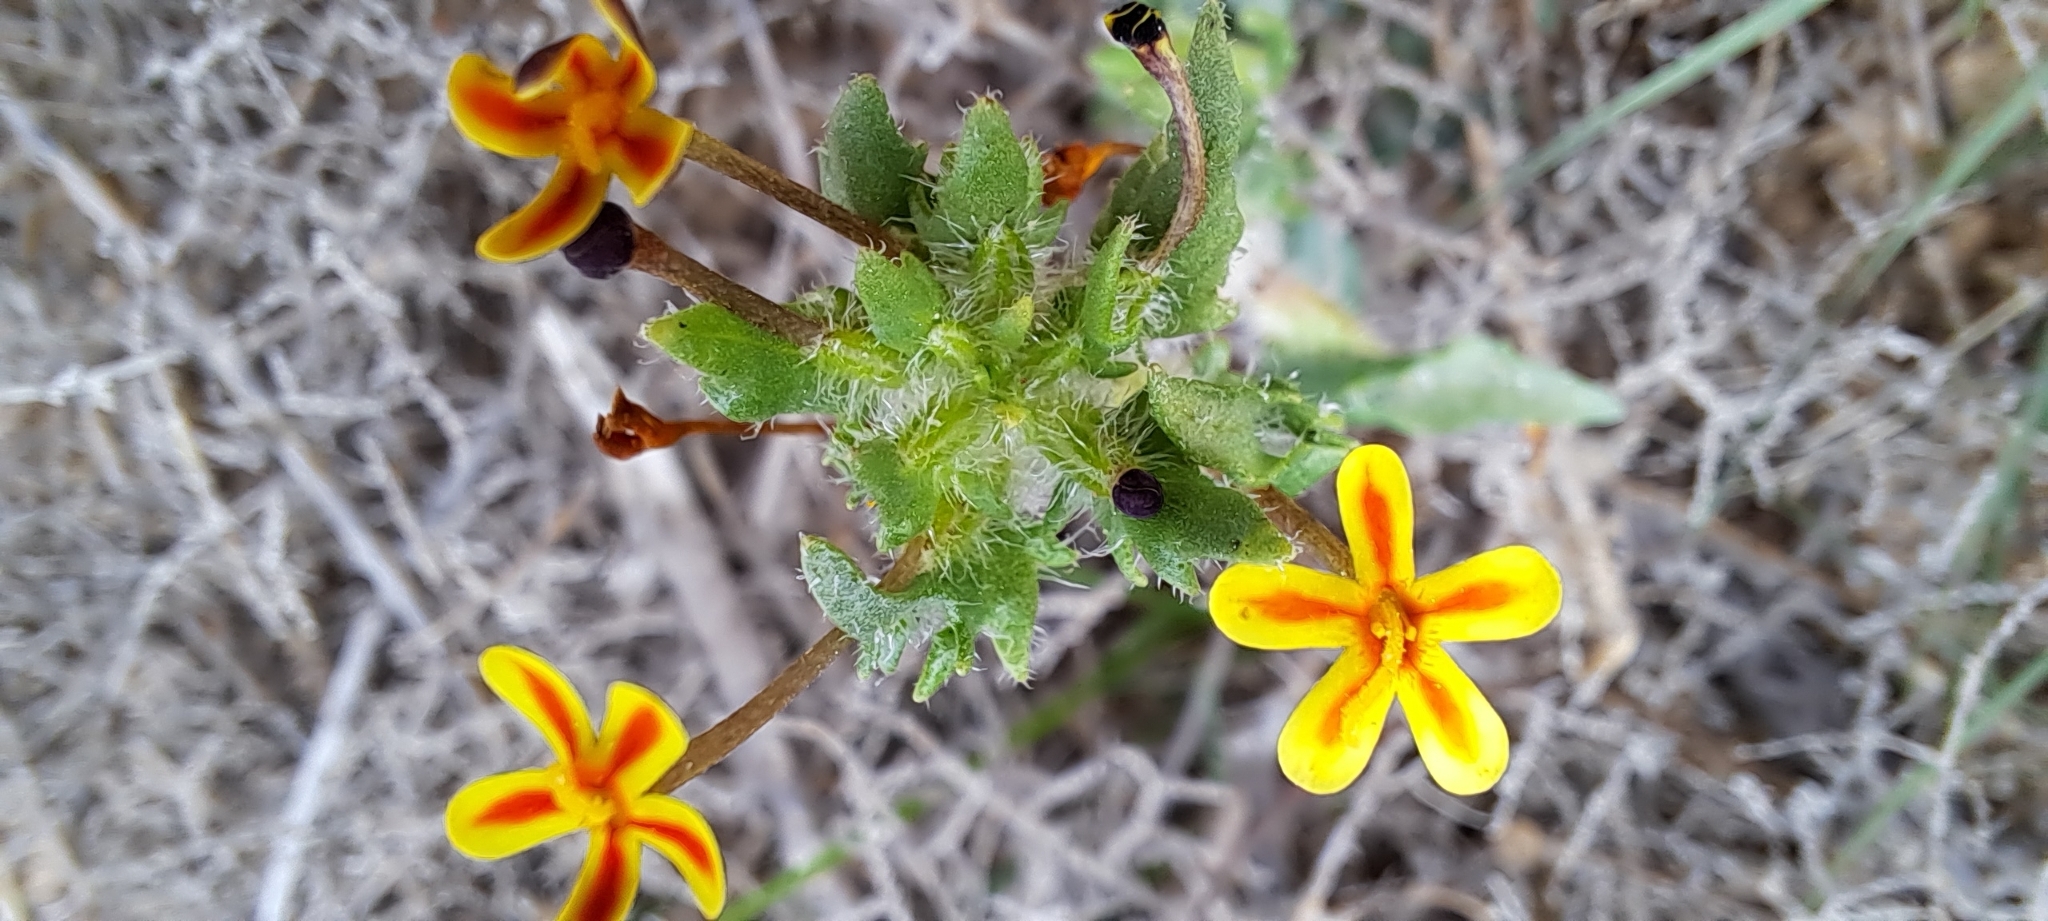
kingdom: Plantae
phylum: Tracheophyta
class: Magnoliopsida
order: Lamiales
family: Scrophulariaceae
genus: Zaluzianskya
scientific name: Zaluzianskya divaricata
